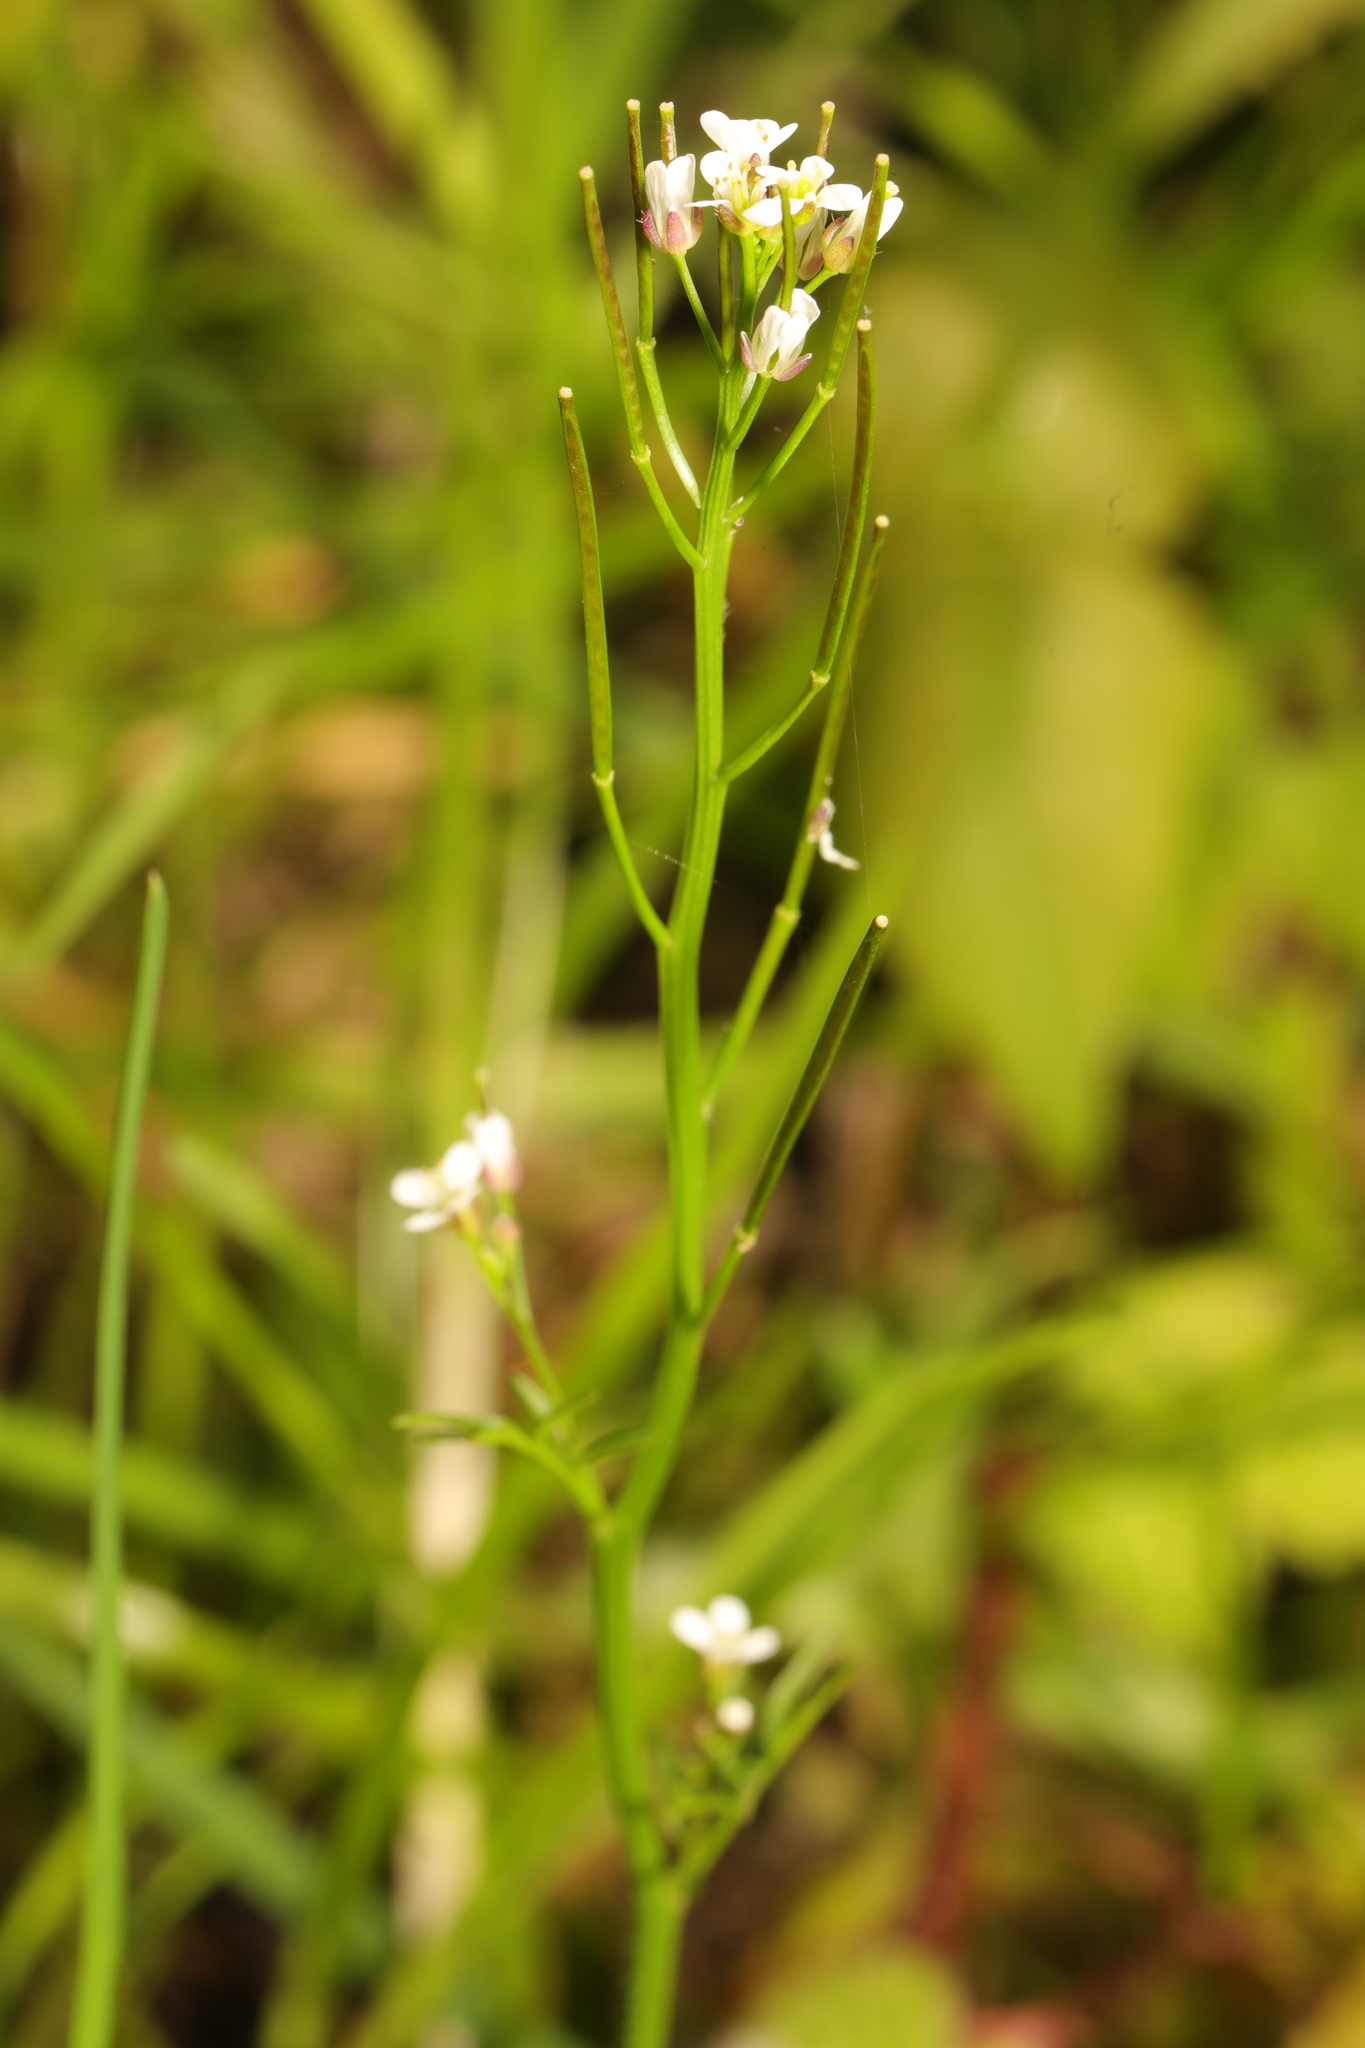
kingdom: Plantae
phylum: Tracheophyta
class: Magnoliopsida
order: Brassicales
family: Brassicaceae
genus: Cardamine
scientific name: Cardamine flexuosa
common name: Woodland bittercress
